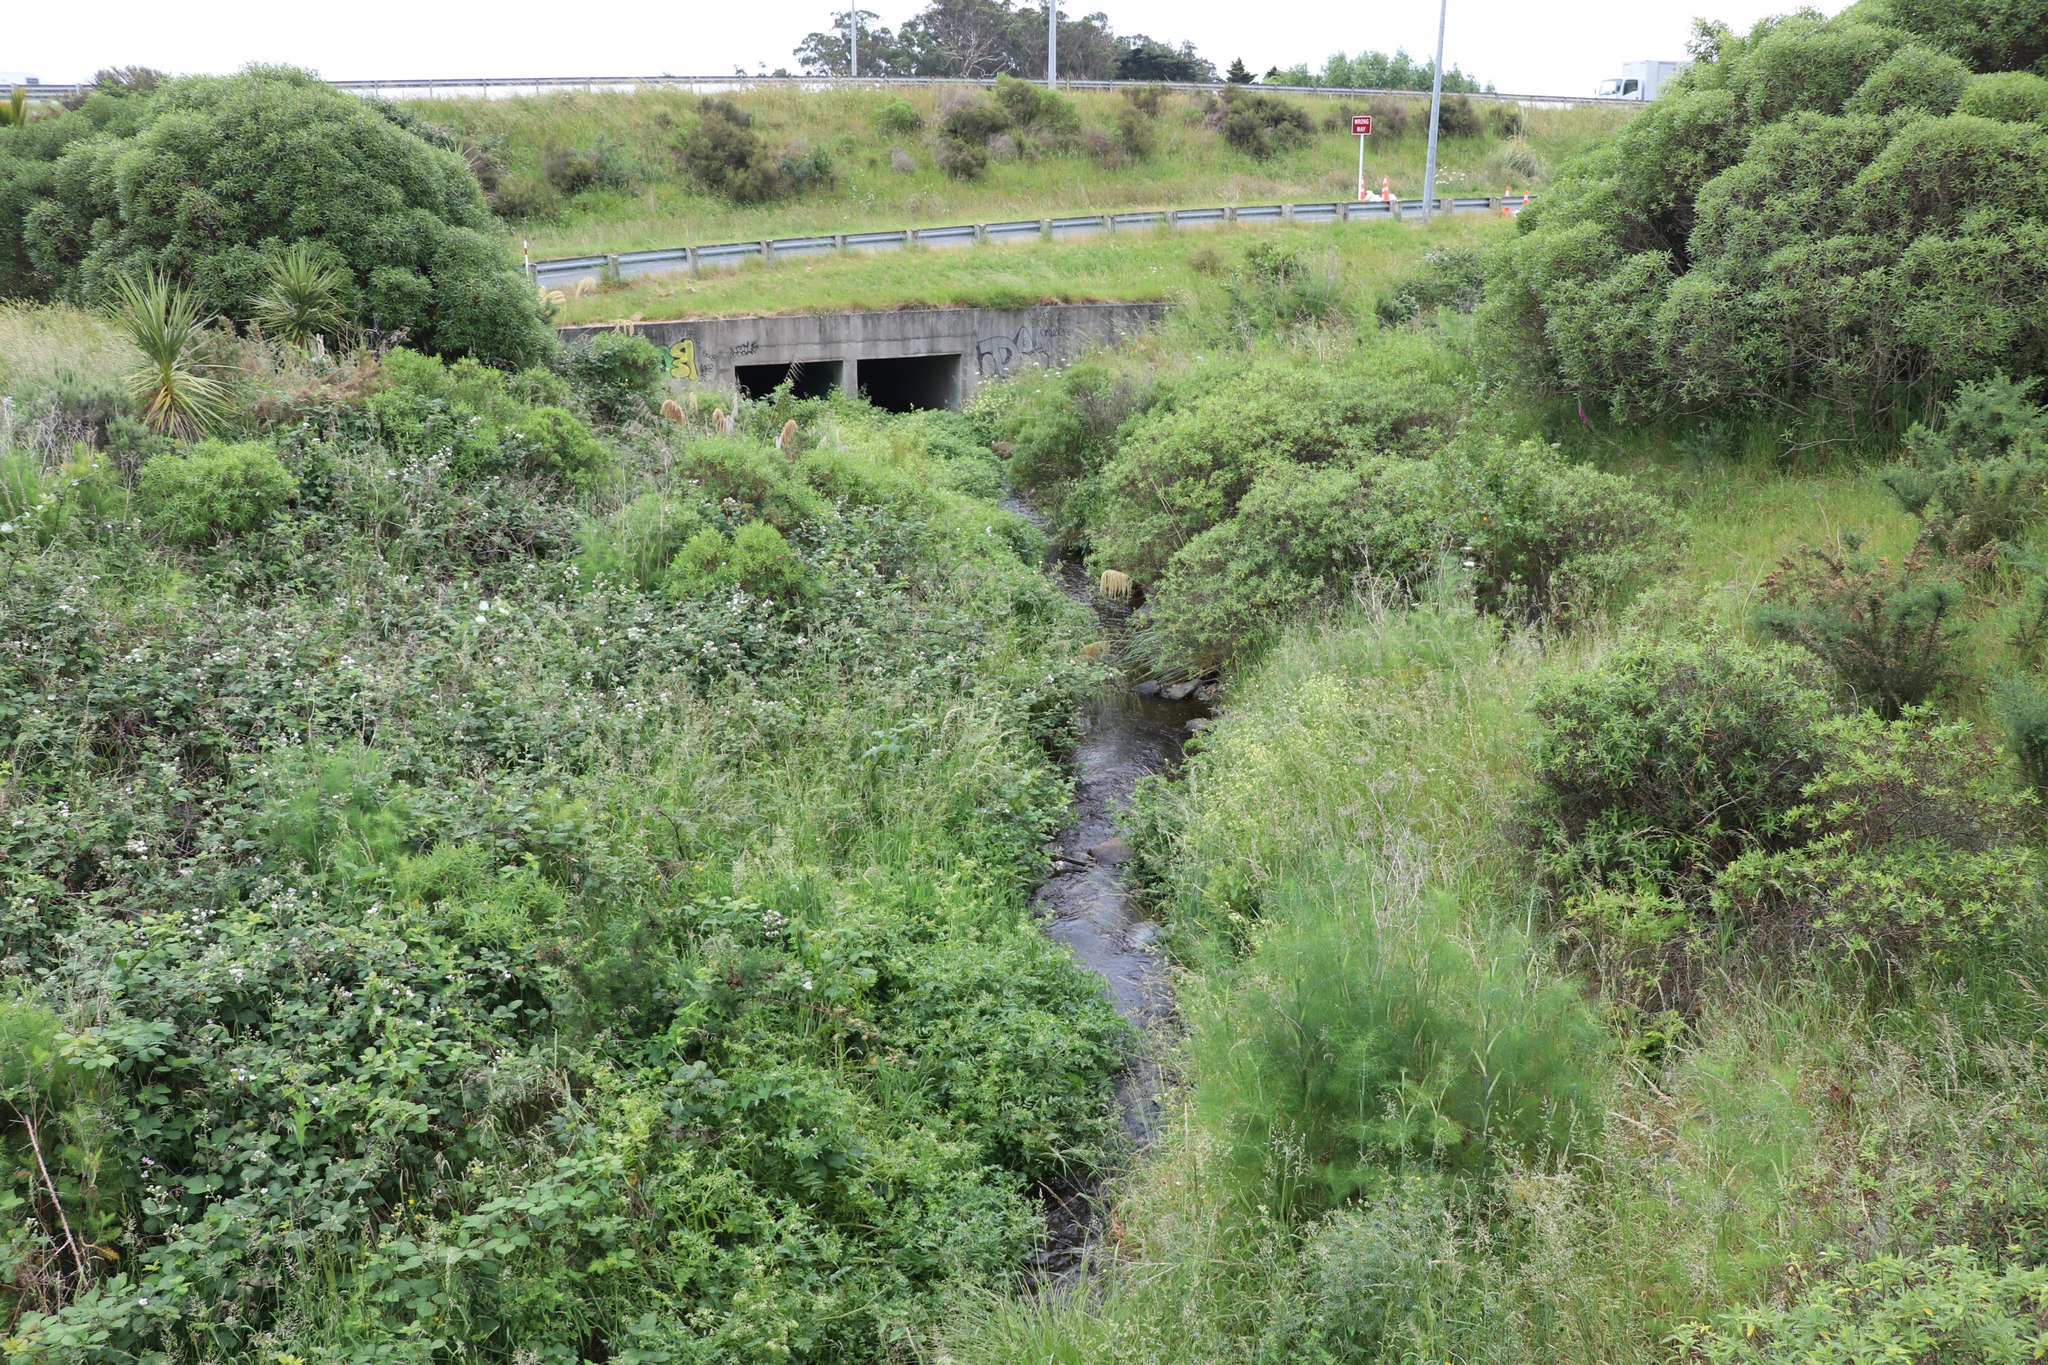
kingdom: Plantae
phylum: Tracheophyta
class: Liliopsida
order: Poales
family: Poaceae
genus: Austroderia
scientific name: Austroderia fulvida
